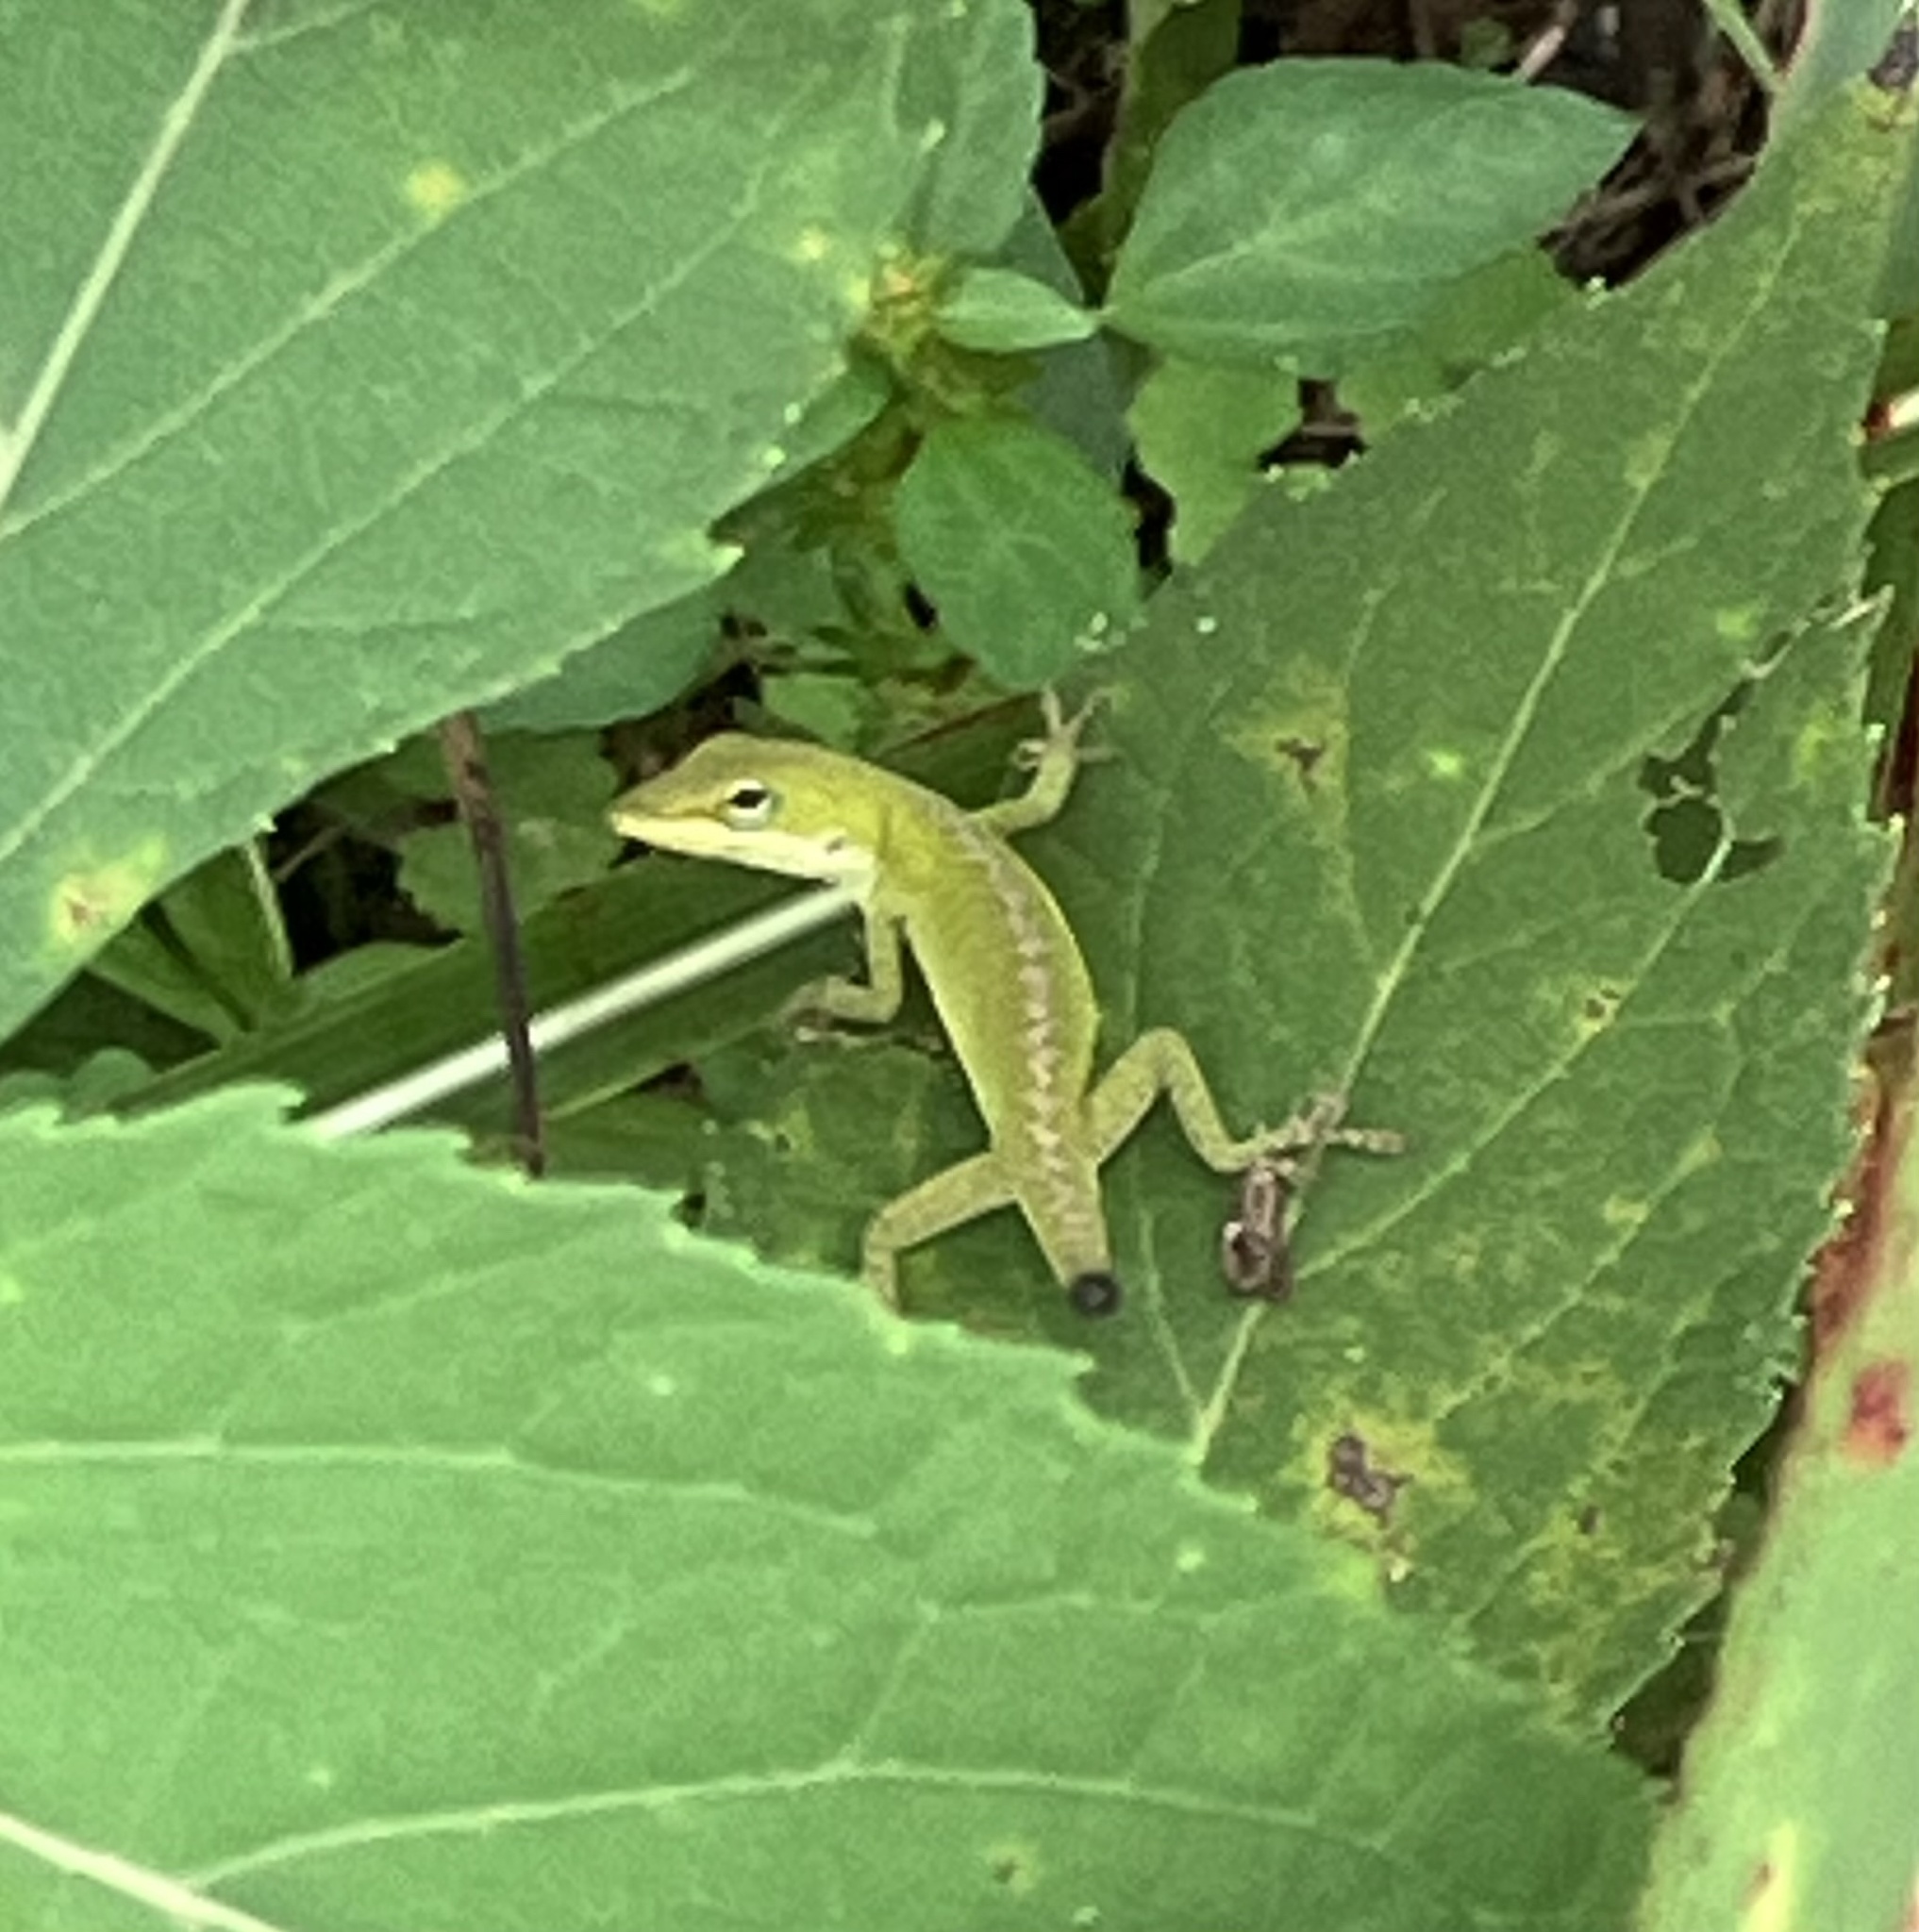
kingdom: Animalia
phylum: Chordata
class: Squamata
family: Dactyloidae
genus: Anolis
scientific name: Anolis carolinensis
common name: Green anole
